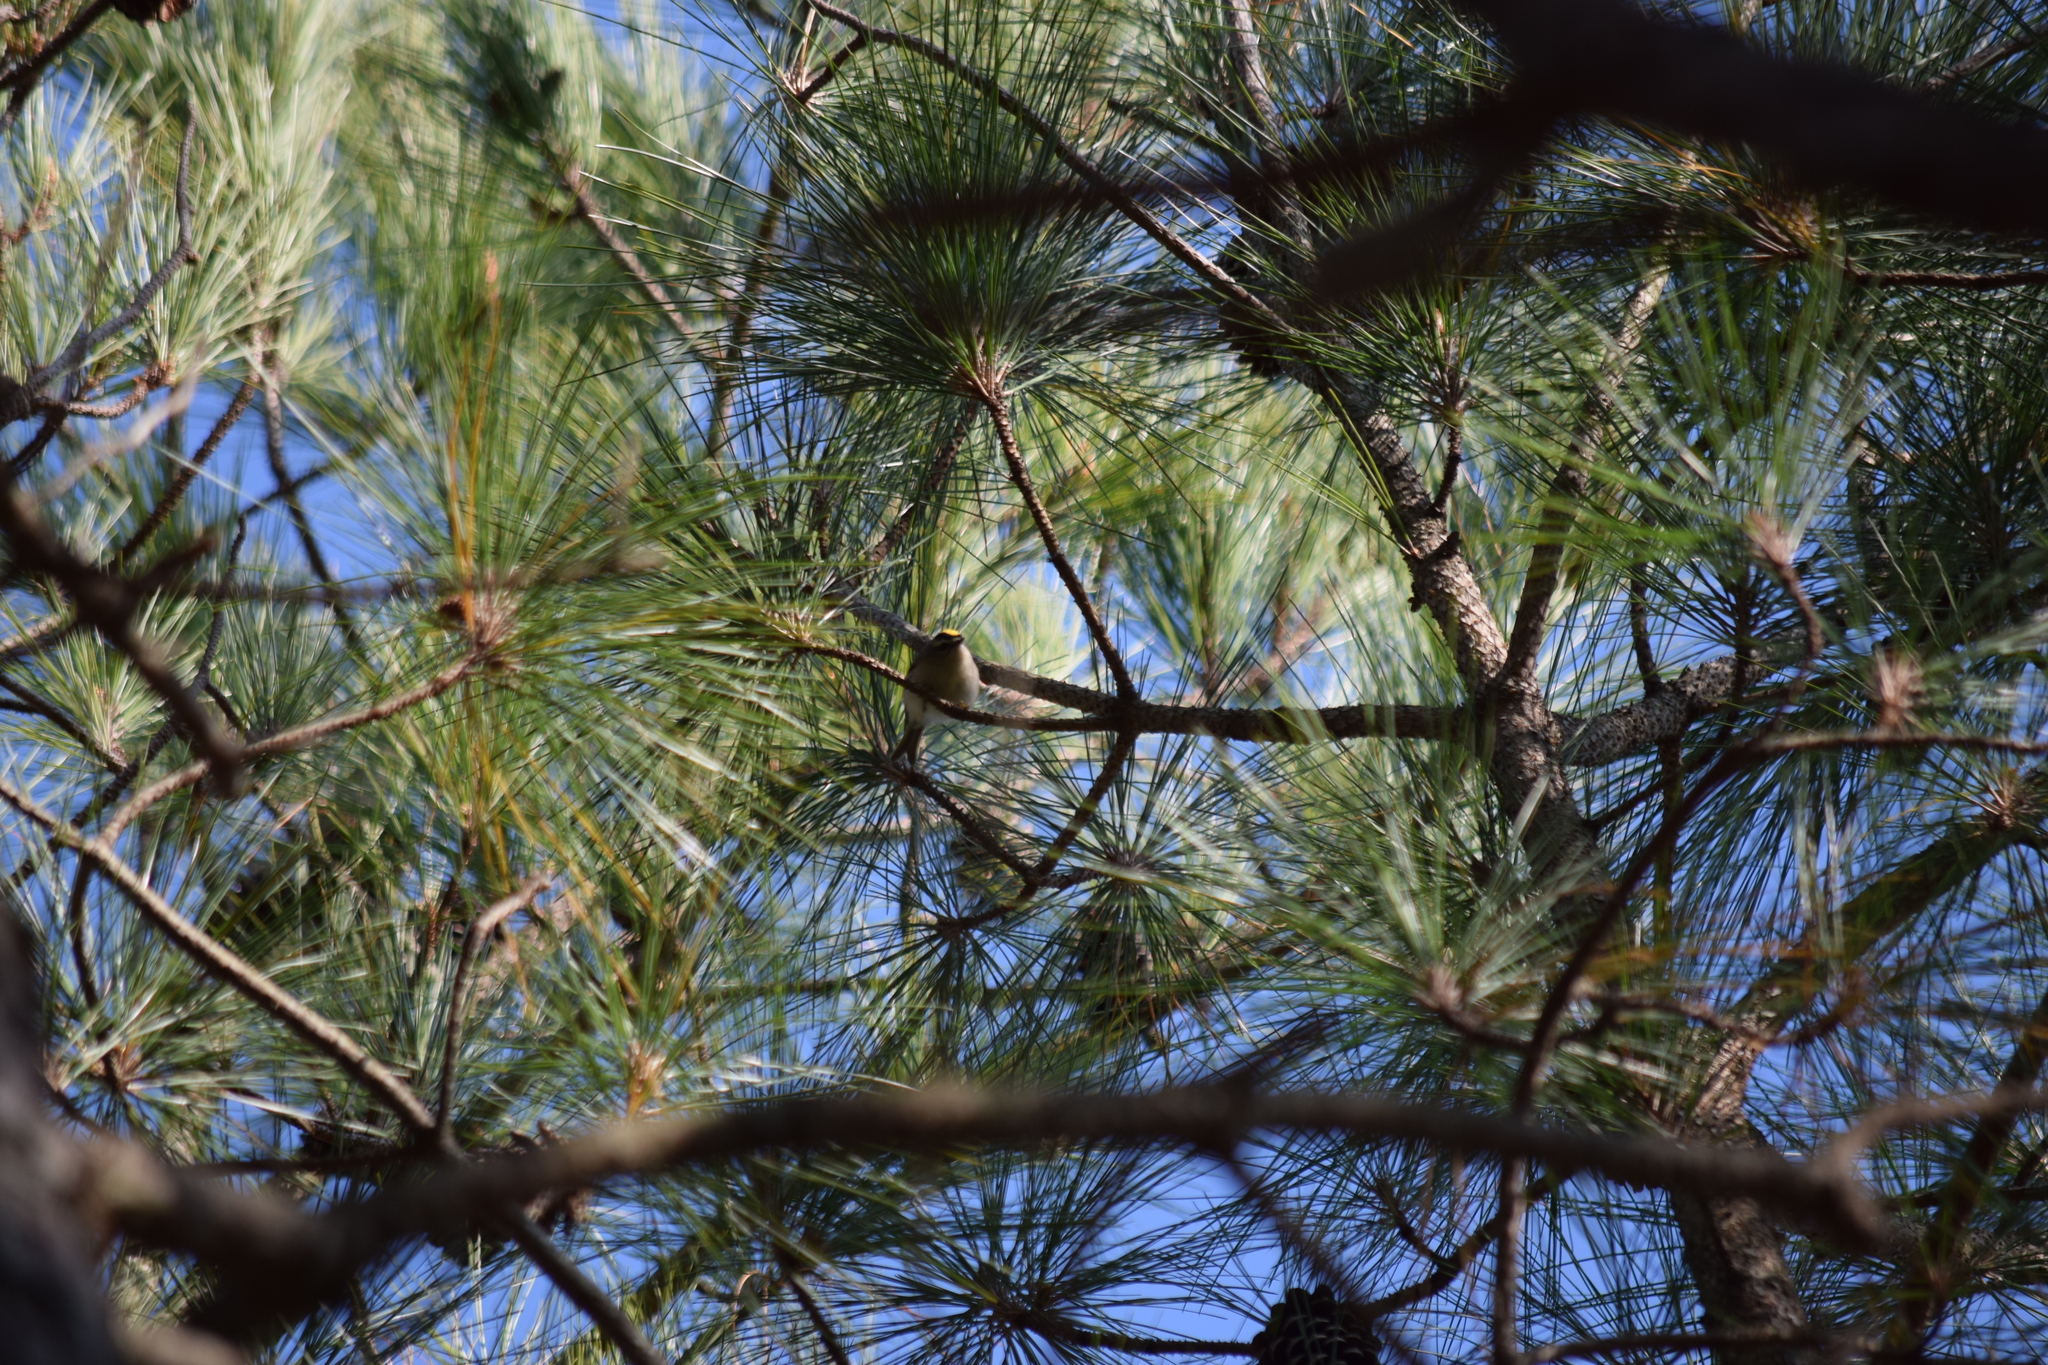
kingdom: Animalia
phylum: Chordata
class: Aves
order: Passeriformes
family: Regulidae
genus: Regulus
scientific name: Regulus satrapa
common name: Golden-crowned kinglet
